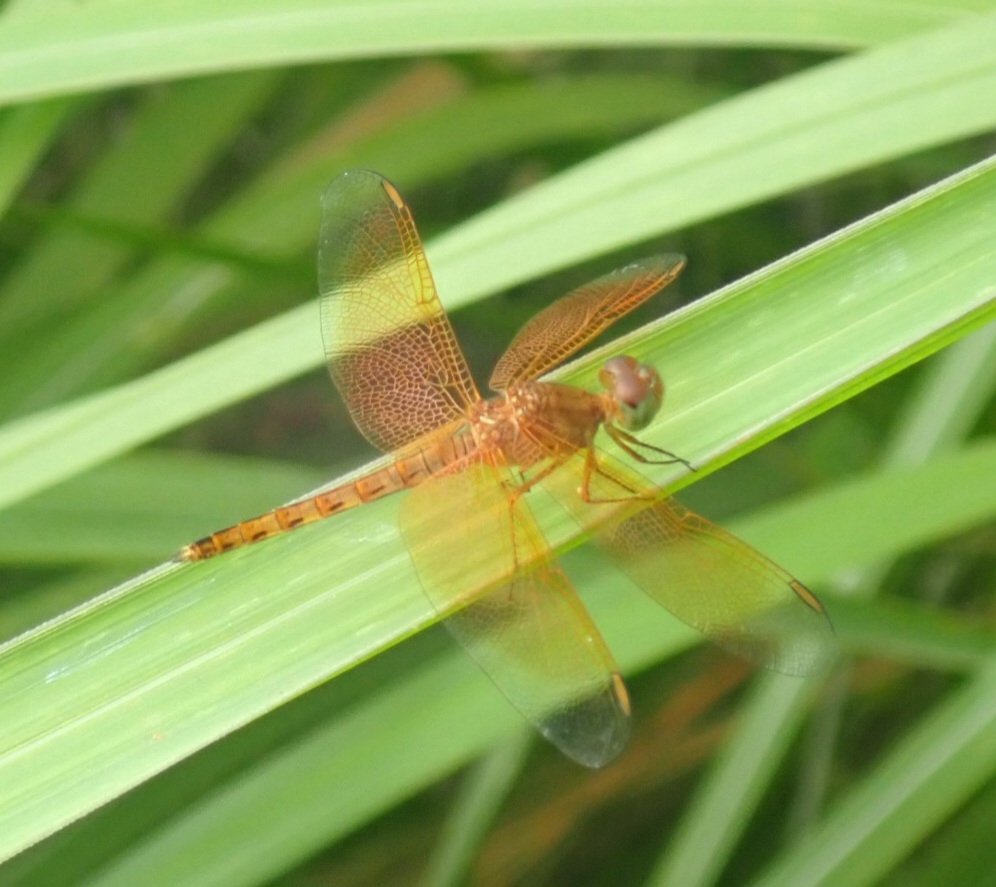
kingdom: Animalia
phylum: Arthropoda
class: Insecta
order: Odonata
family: Libellulidae
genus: Neurothemis
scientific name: Neurothemis fluctuans
